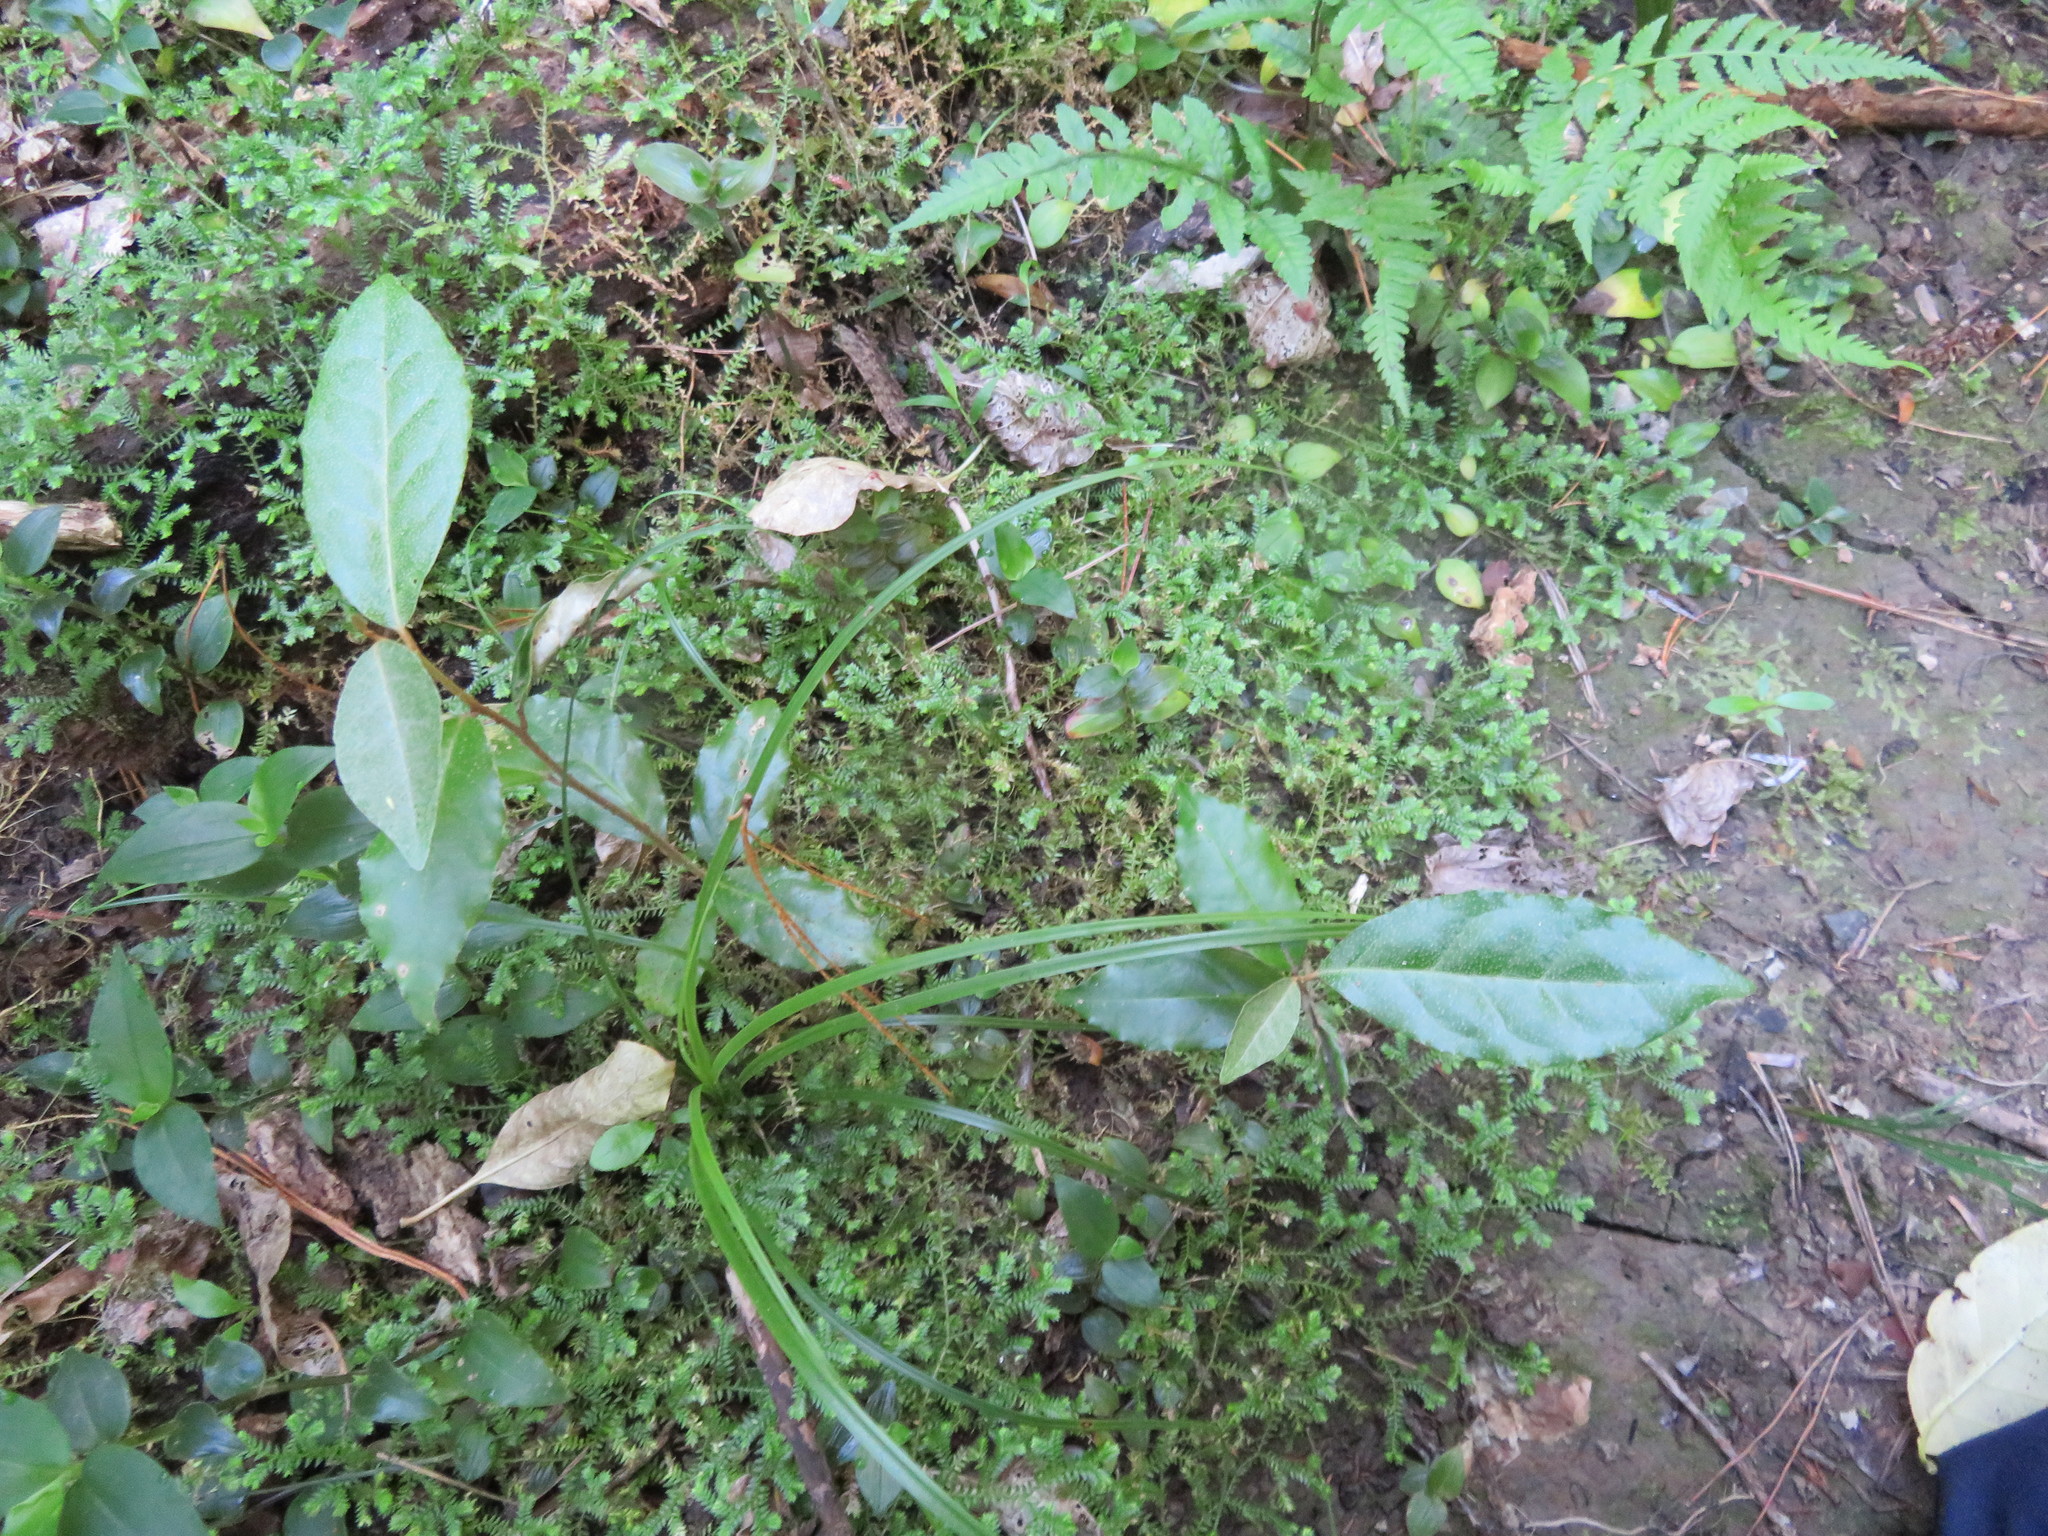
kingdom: Plantae
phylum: Tracheophyta
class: Magnoliopsida
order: Rosales
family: Elaeagnaceae
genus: Elaeagnus
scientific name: Elaeagnus reflexa
